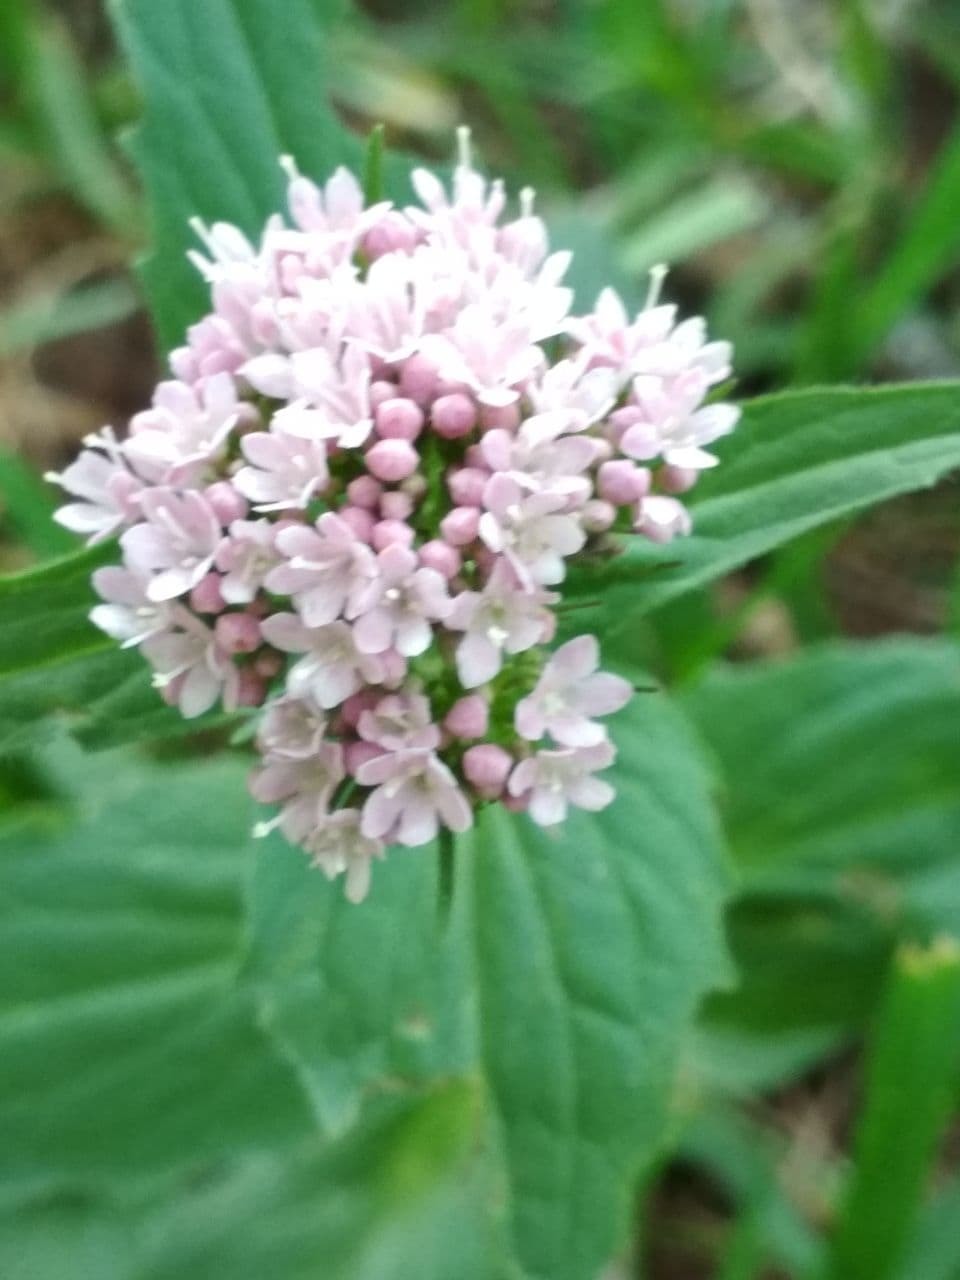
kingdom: Plantae
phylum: Tracheophyta
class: Magnoliopsida
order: Dipsacales
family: Caprifoliaceae
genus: Valeriana
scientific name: Valeriana tripteris
